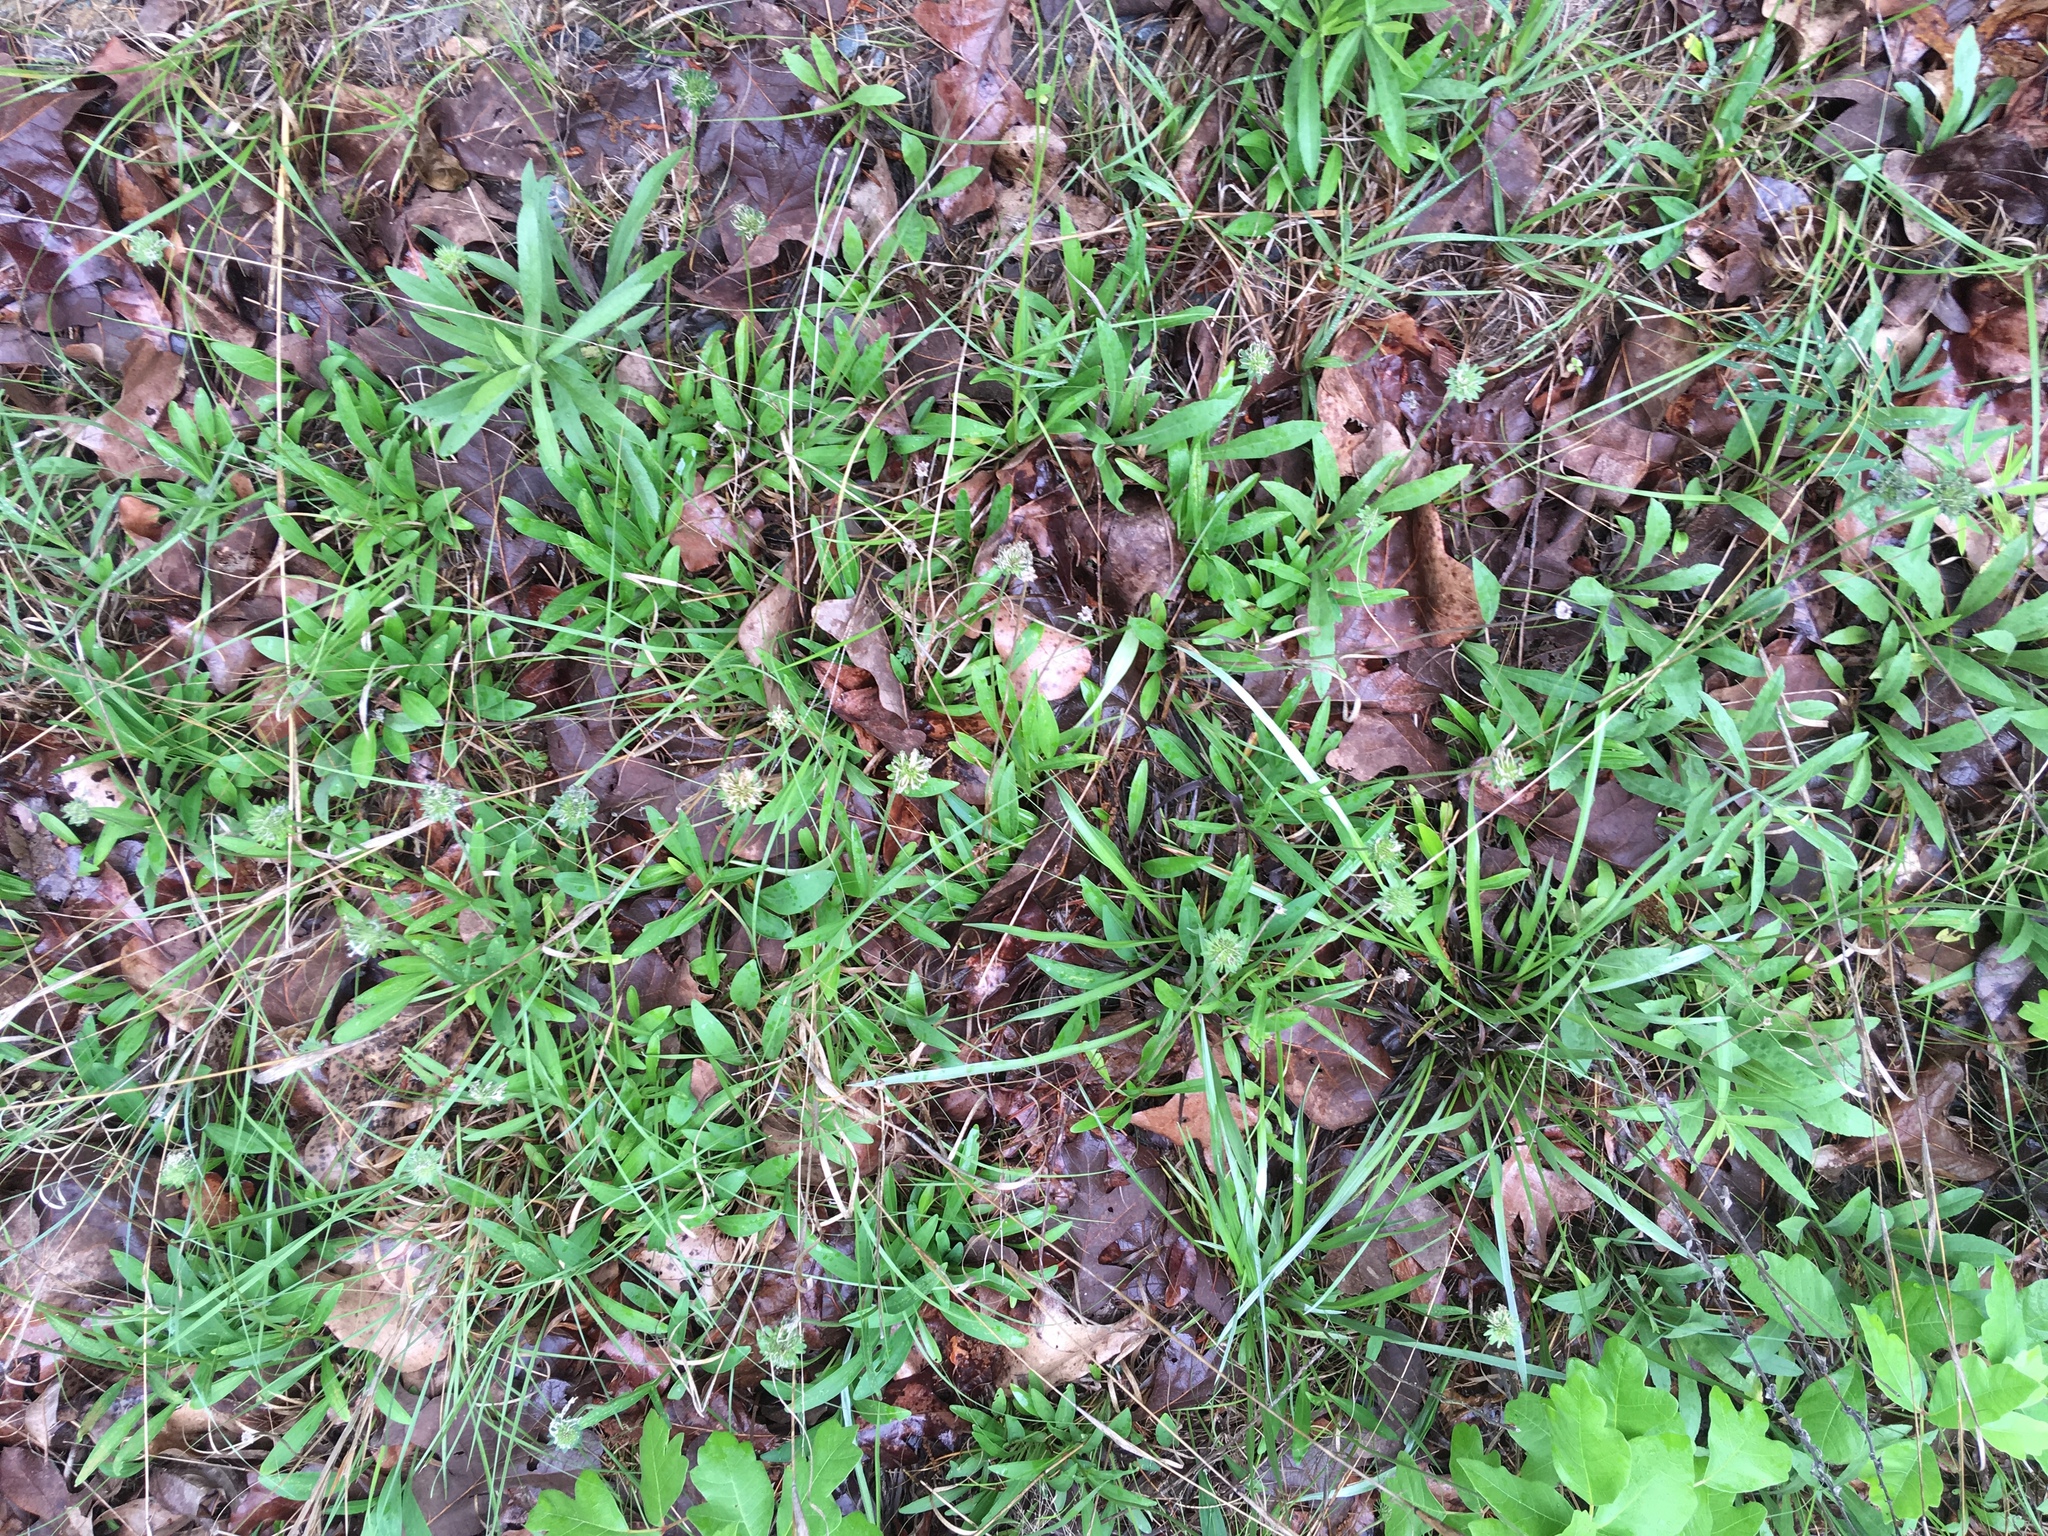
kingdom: Plantae
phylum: Tracheophyta
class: Magnoliopsida
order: Asterales
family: Asteraceae
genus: Marshallia
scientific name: Marshallia obovata
